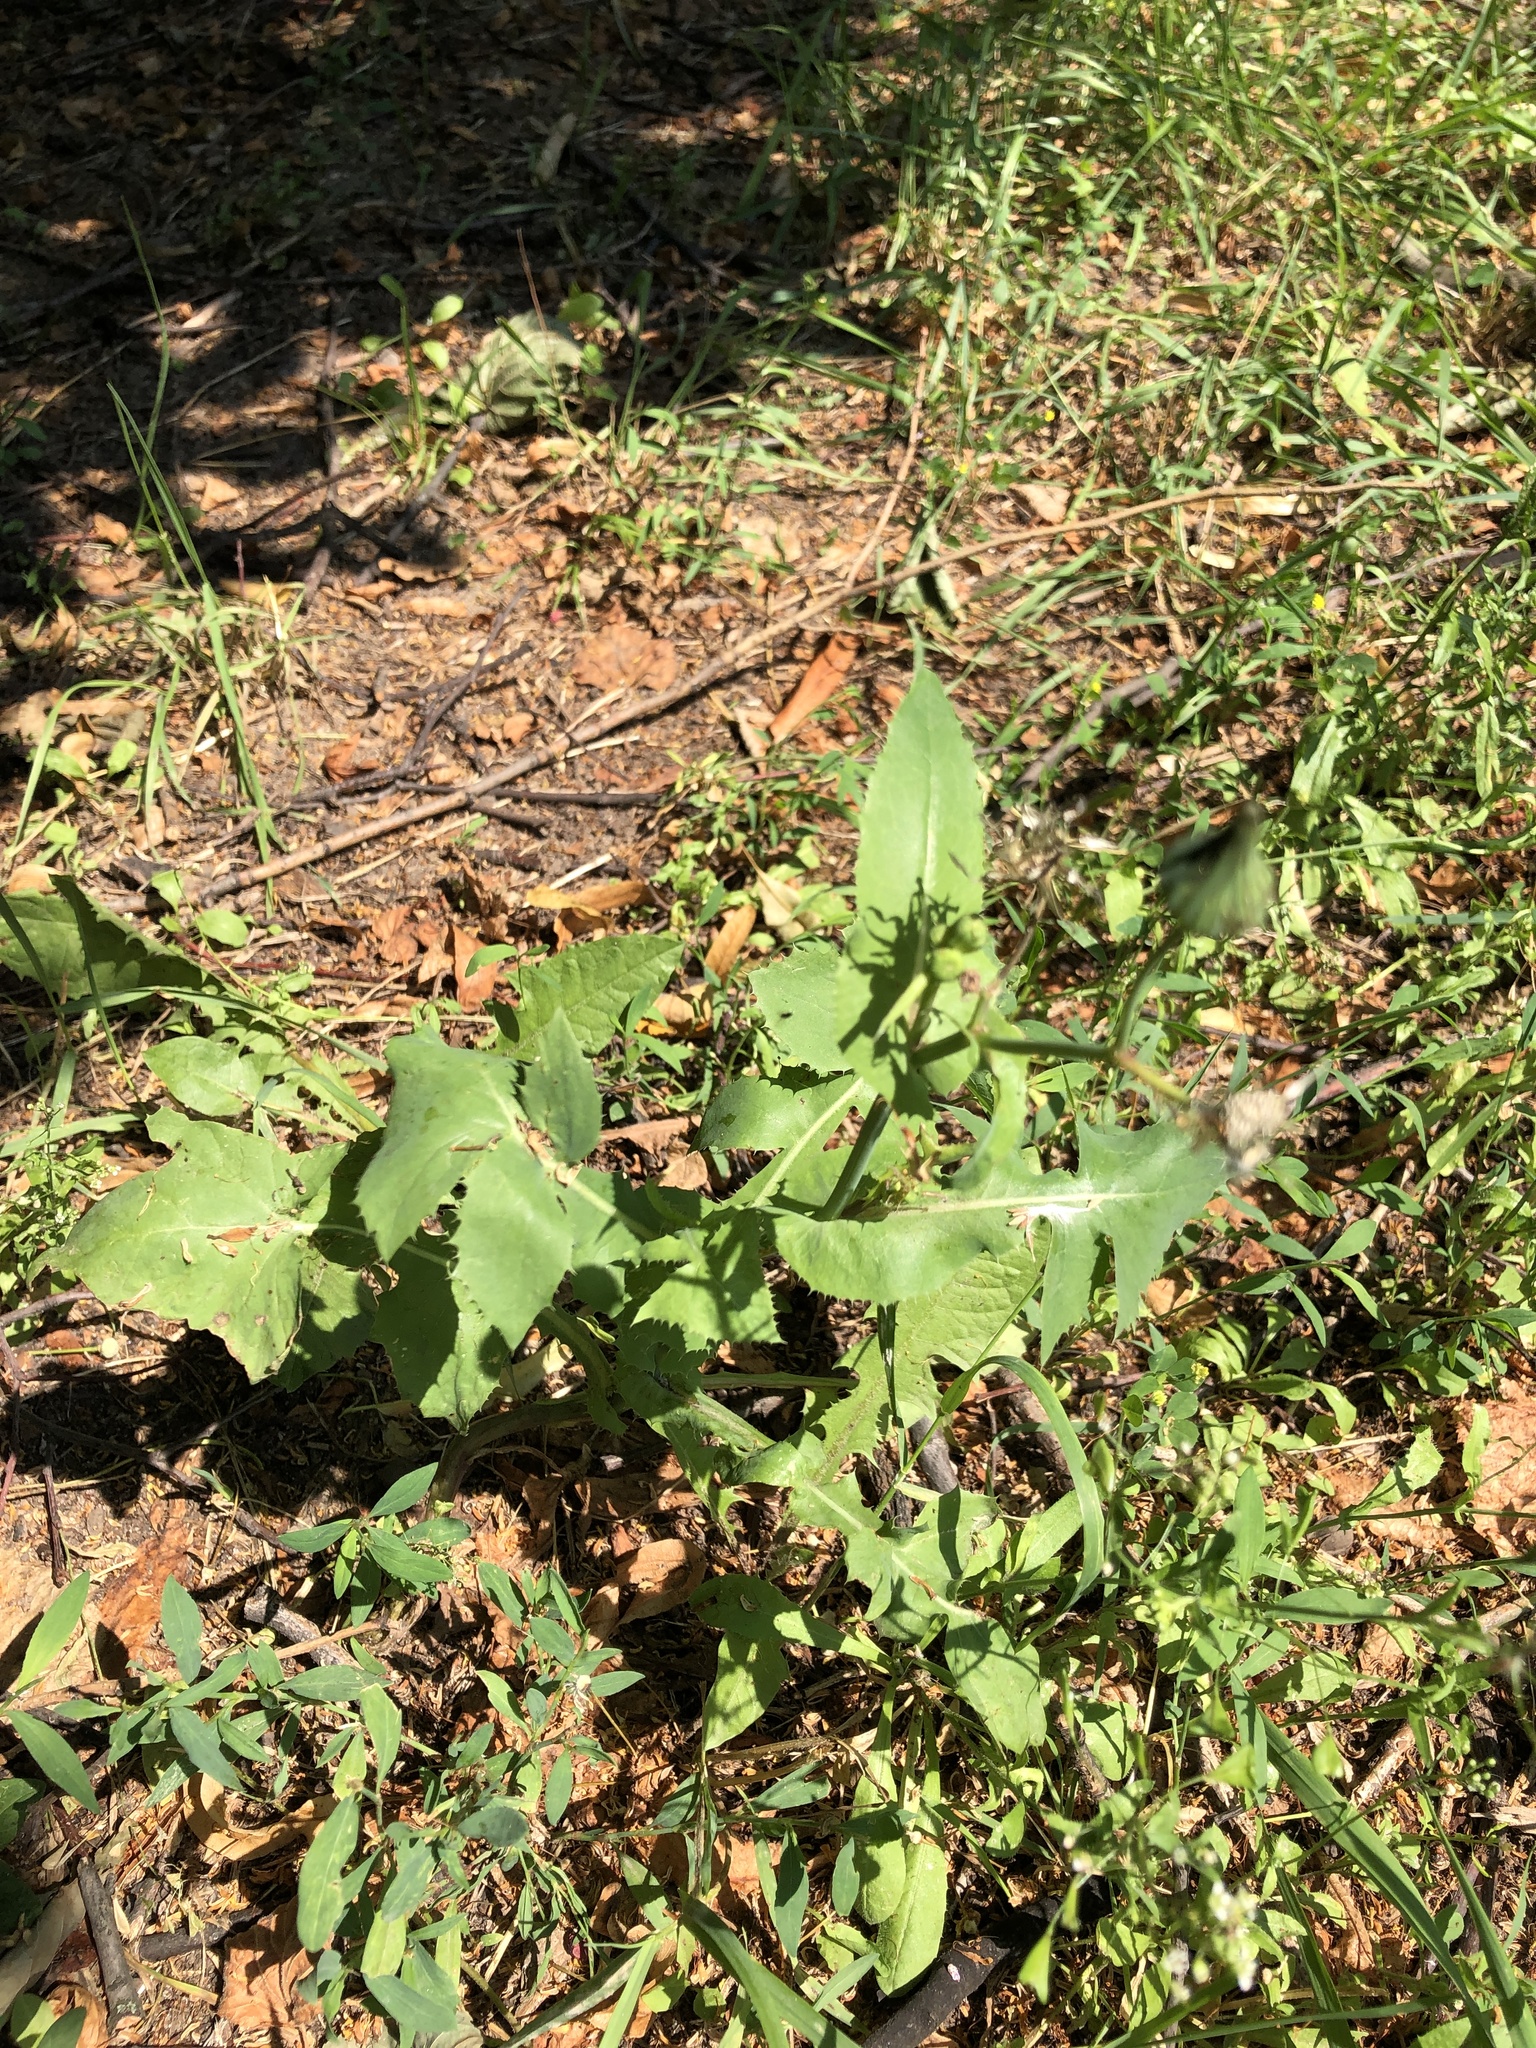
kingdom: Plantae
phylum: Tracheophyta
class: Magnoliopsida
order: Asterales
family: Asteraceae
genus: Sonchus
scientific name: Sonchus oleraceus
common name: Common sowthistle
